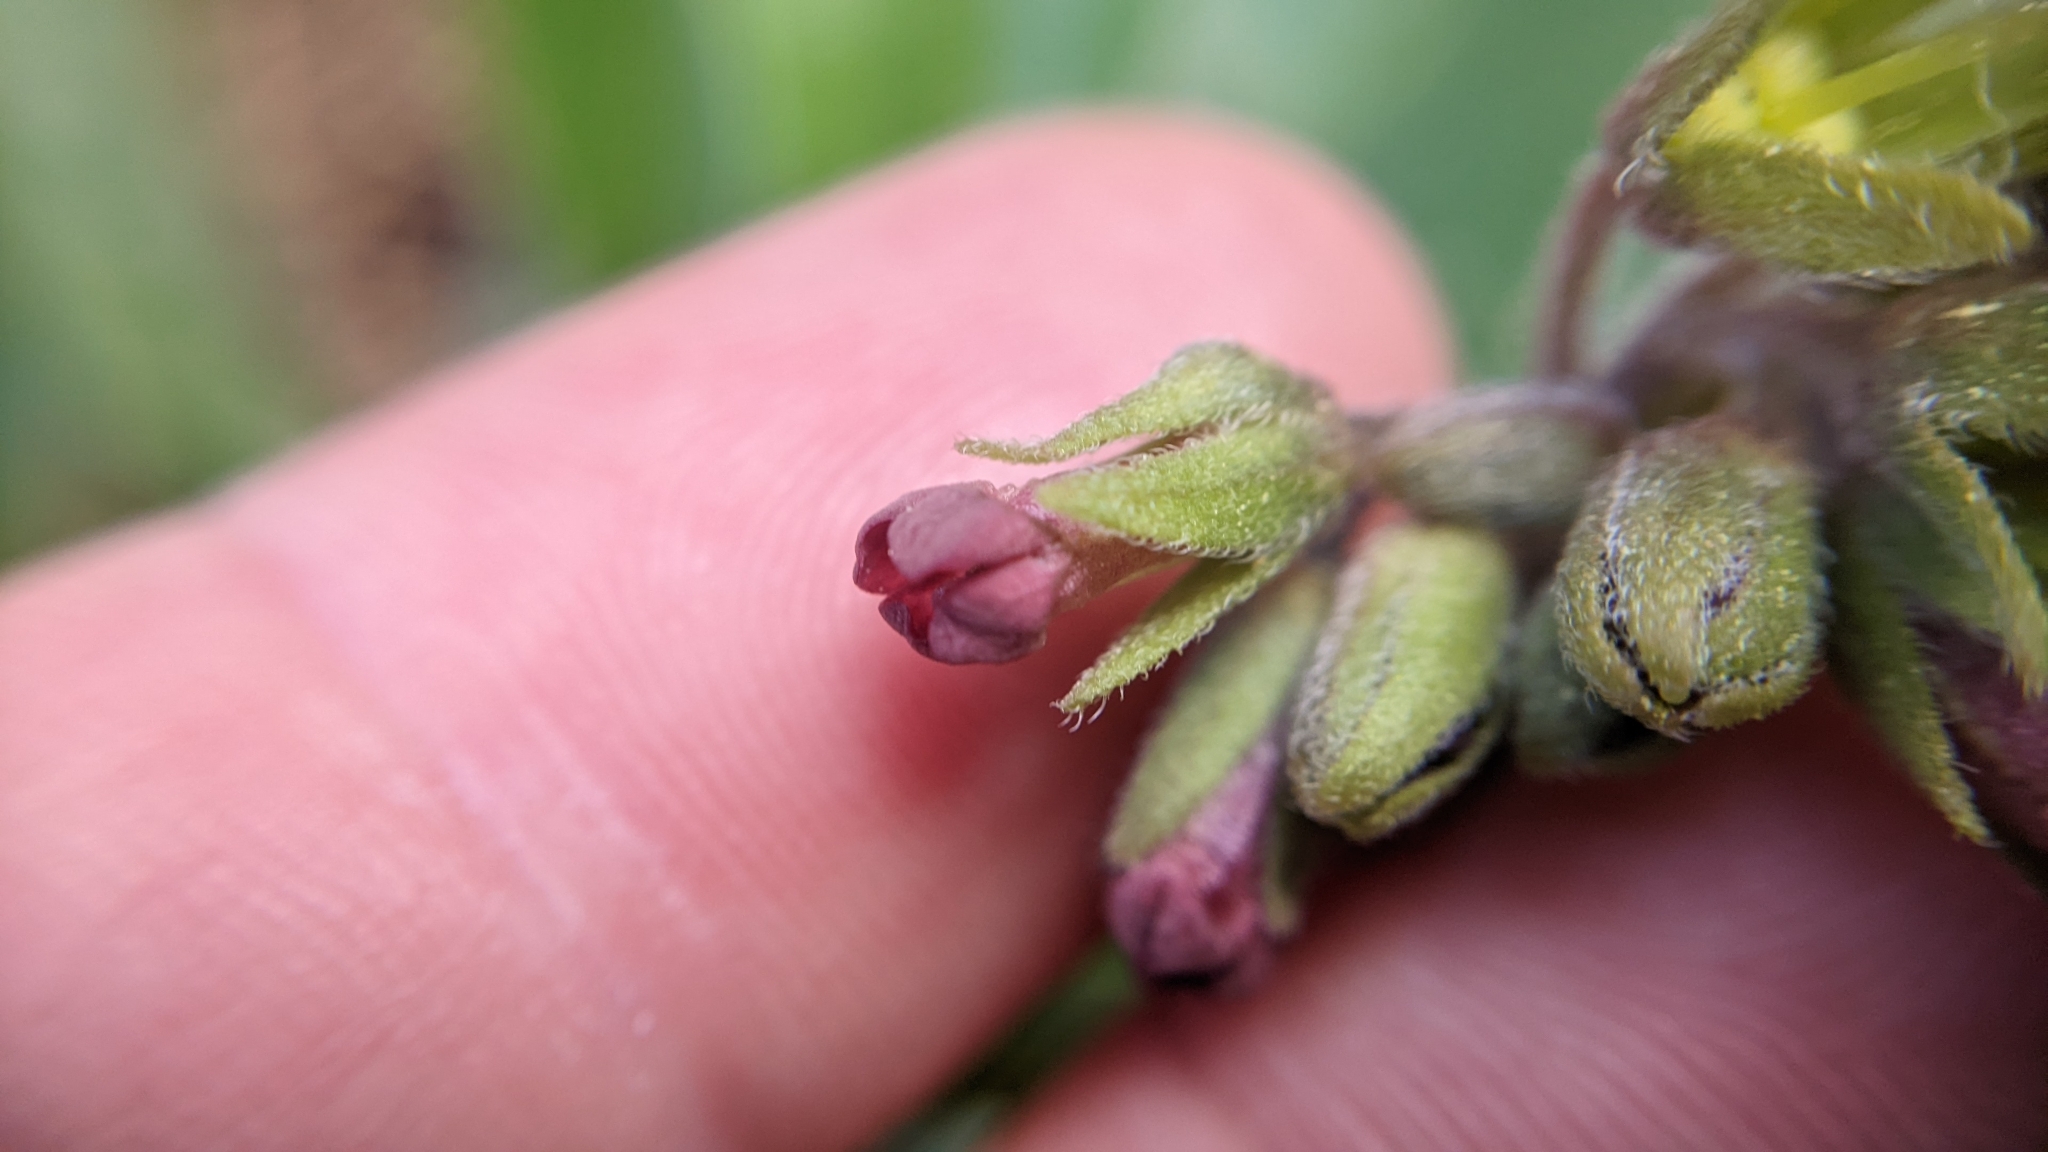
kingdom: Plantae
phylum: Tracheophyta
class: Magnoliopsida
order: Boraginales
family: Boraginaceae
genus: Cynoglossum
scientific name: Cynoglossum officinale
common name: Hound's-tongue
